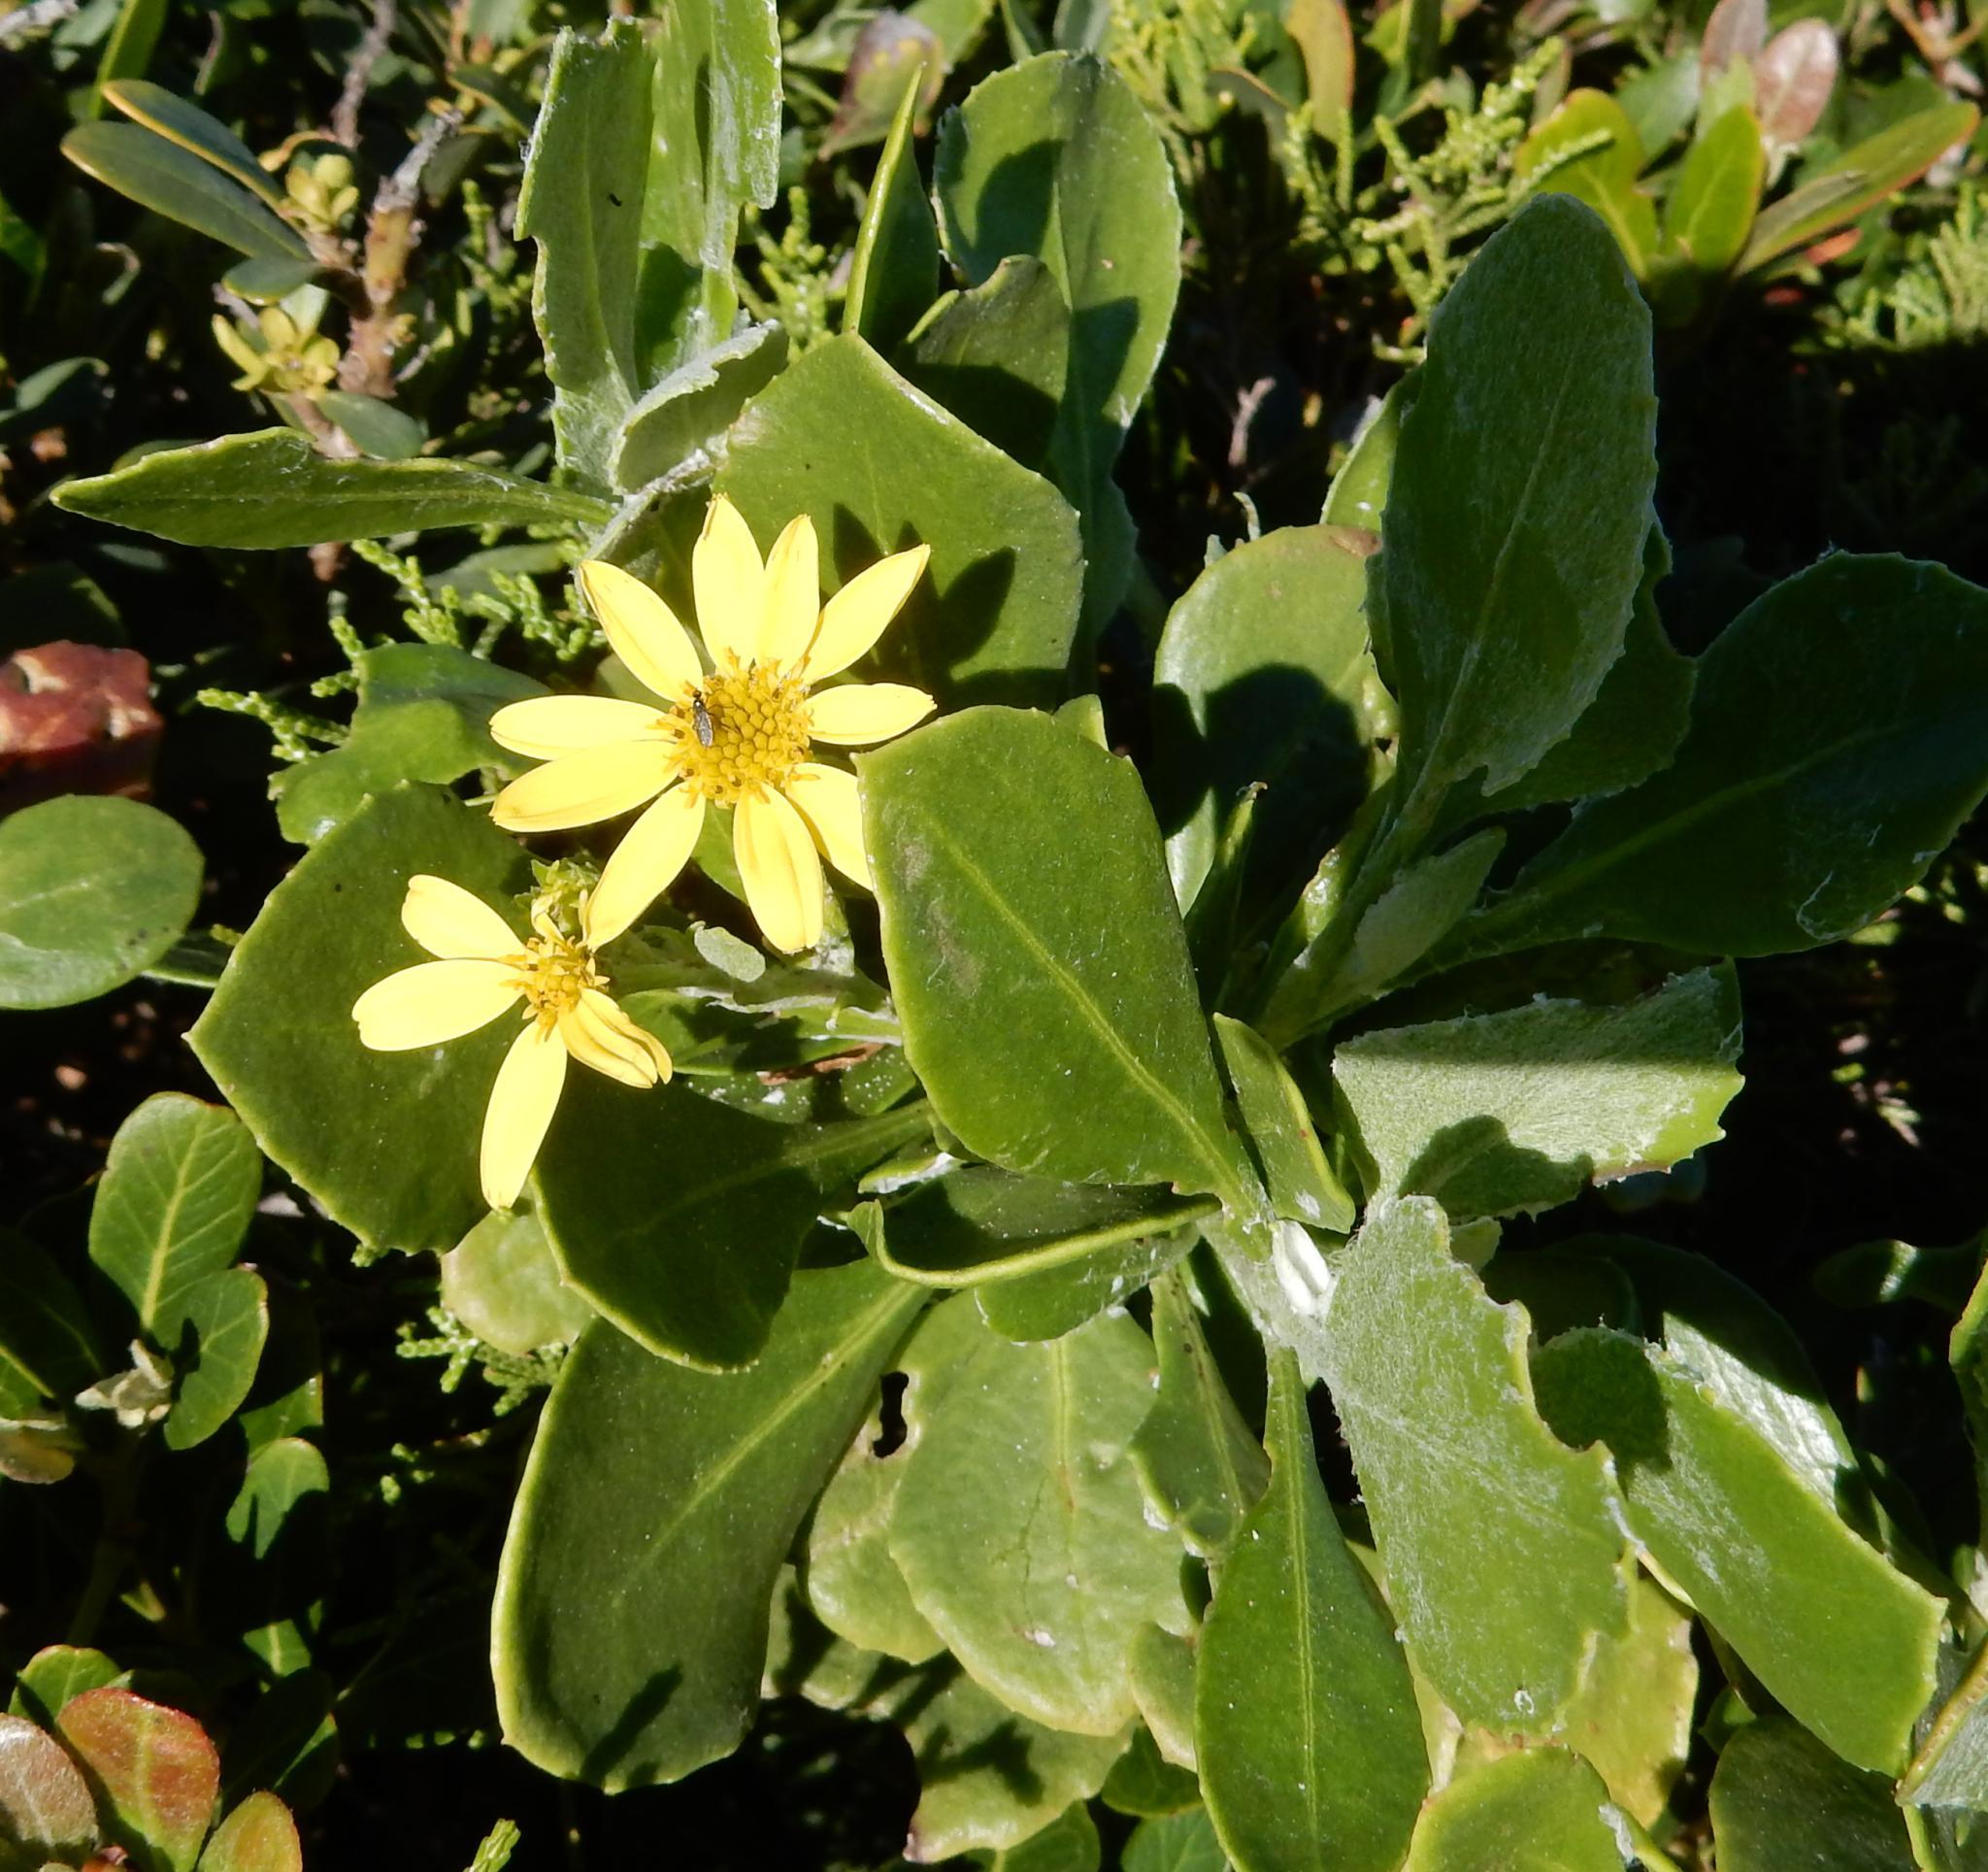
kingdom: Plantae
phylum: Tracheophyta
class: Magnoliopsida
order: Asterales
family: Asteraceae
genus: Osteospermum
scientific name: Osteospermum moniliferum
